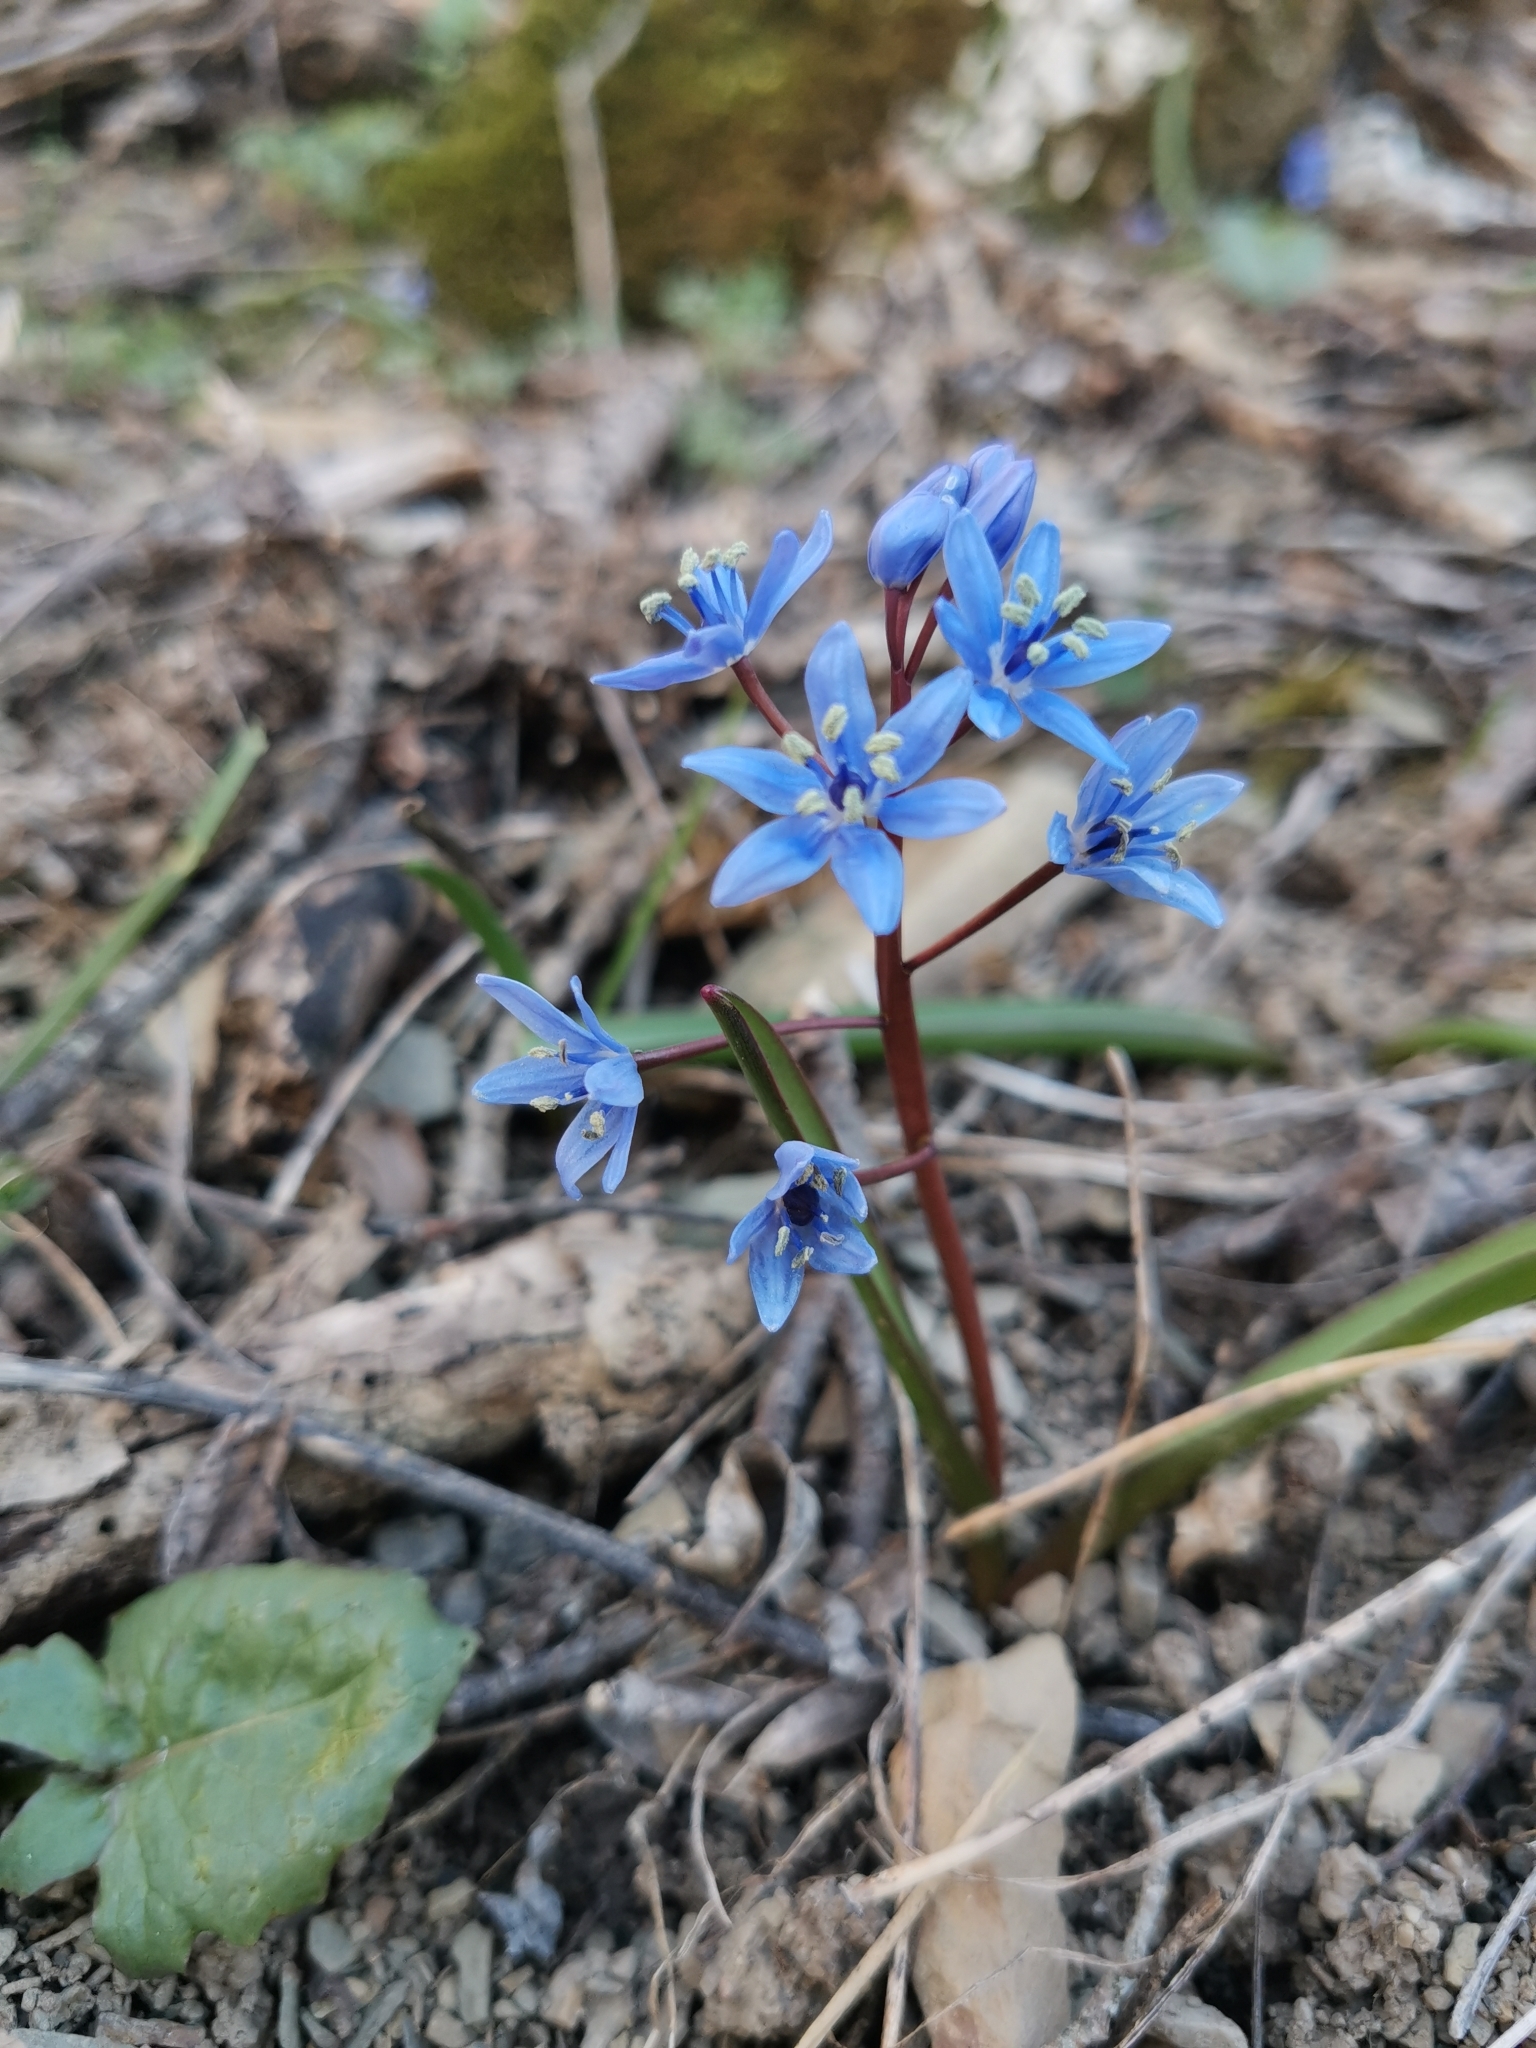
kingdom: Plantae
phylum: Tracheophyta
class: Liliopsida
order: Asparagales
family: Asparagaceae
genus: Scilla
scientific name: Scilla bifolia
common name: Alpine squill
